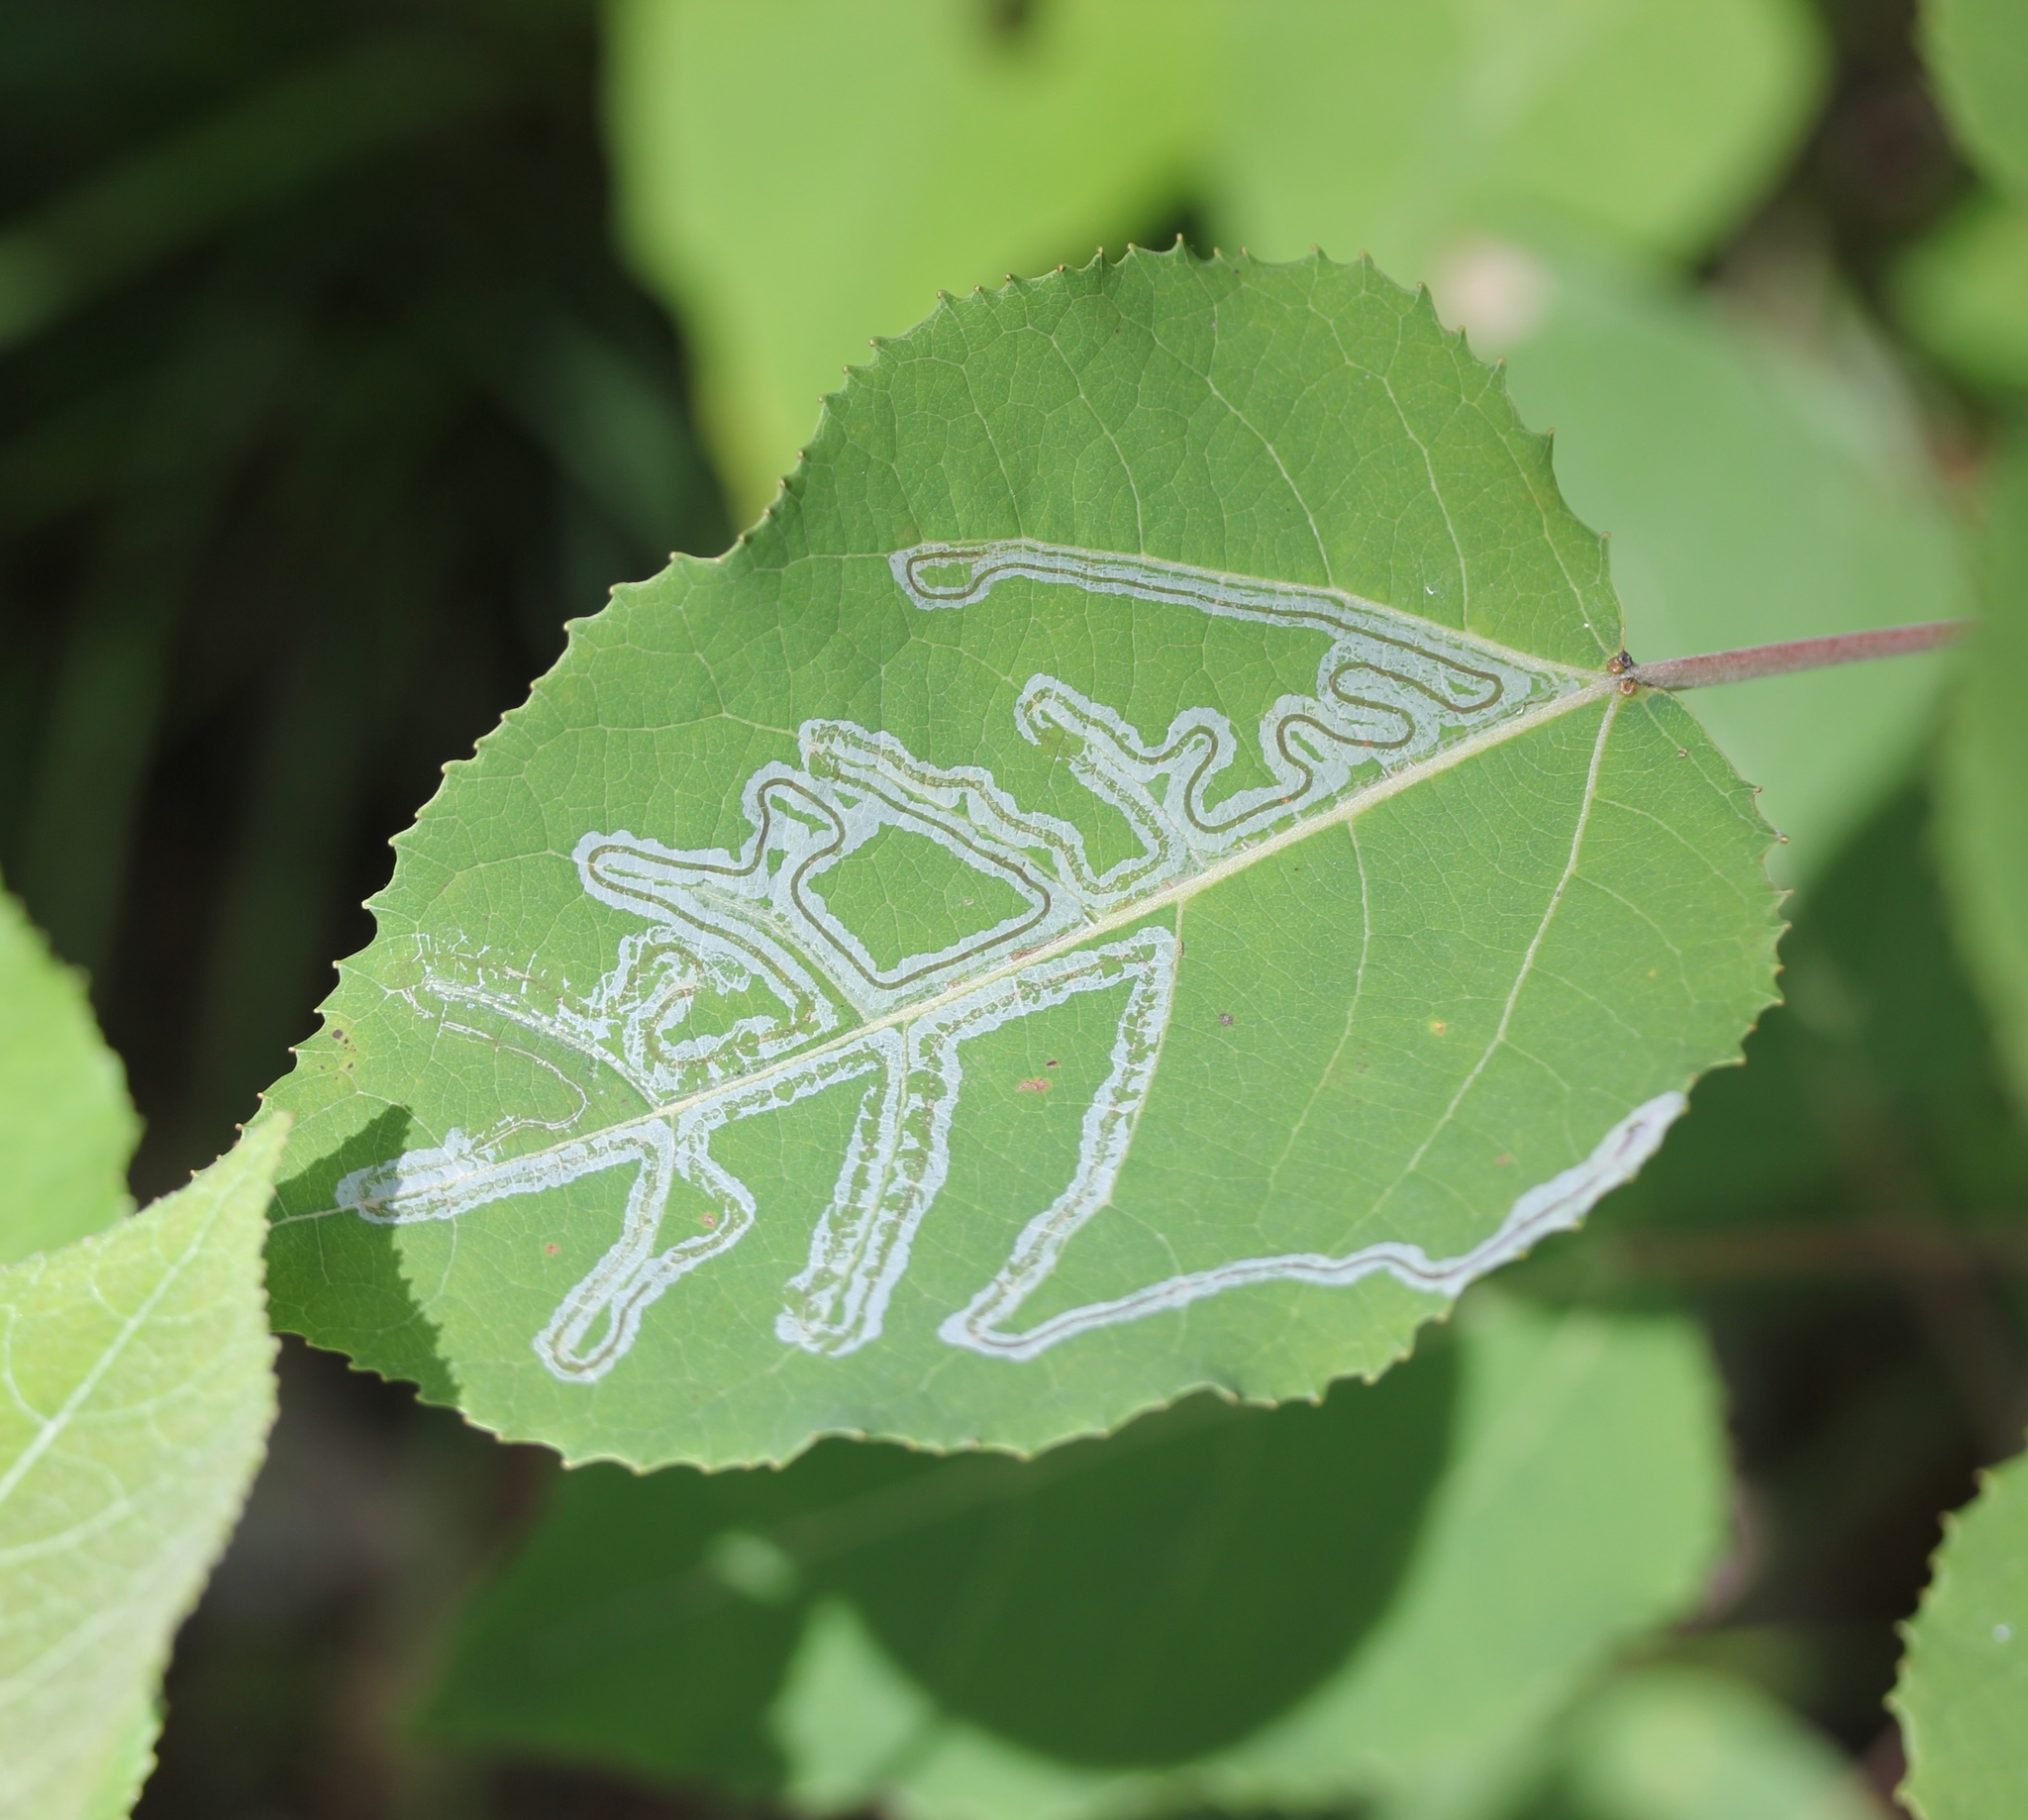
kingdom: Animalia
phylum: Arthropoda
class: Insecta
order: Lepidoptera
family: Gracillariidae
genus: Phyllocnistis
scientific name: Phyllocnistis populiella
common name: Aspen serpentine leafminer moth
